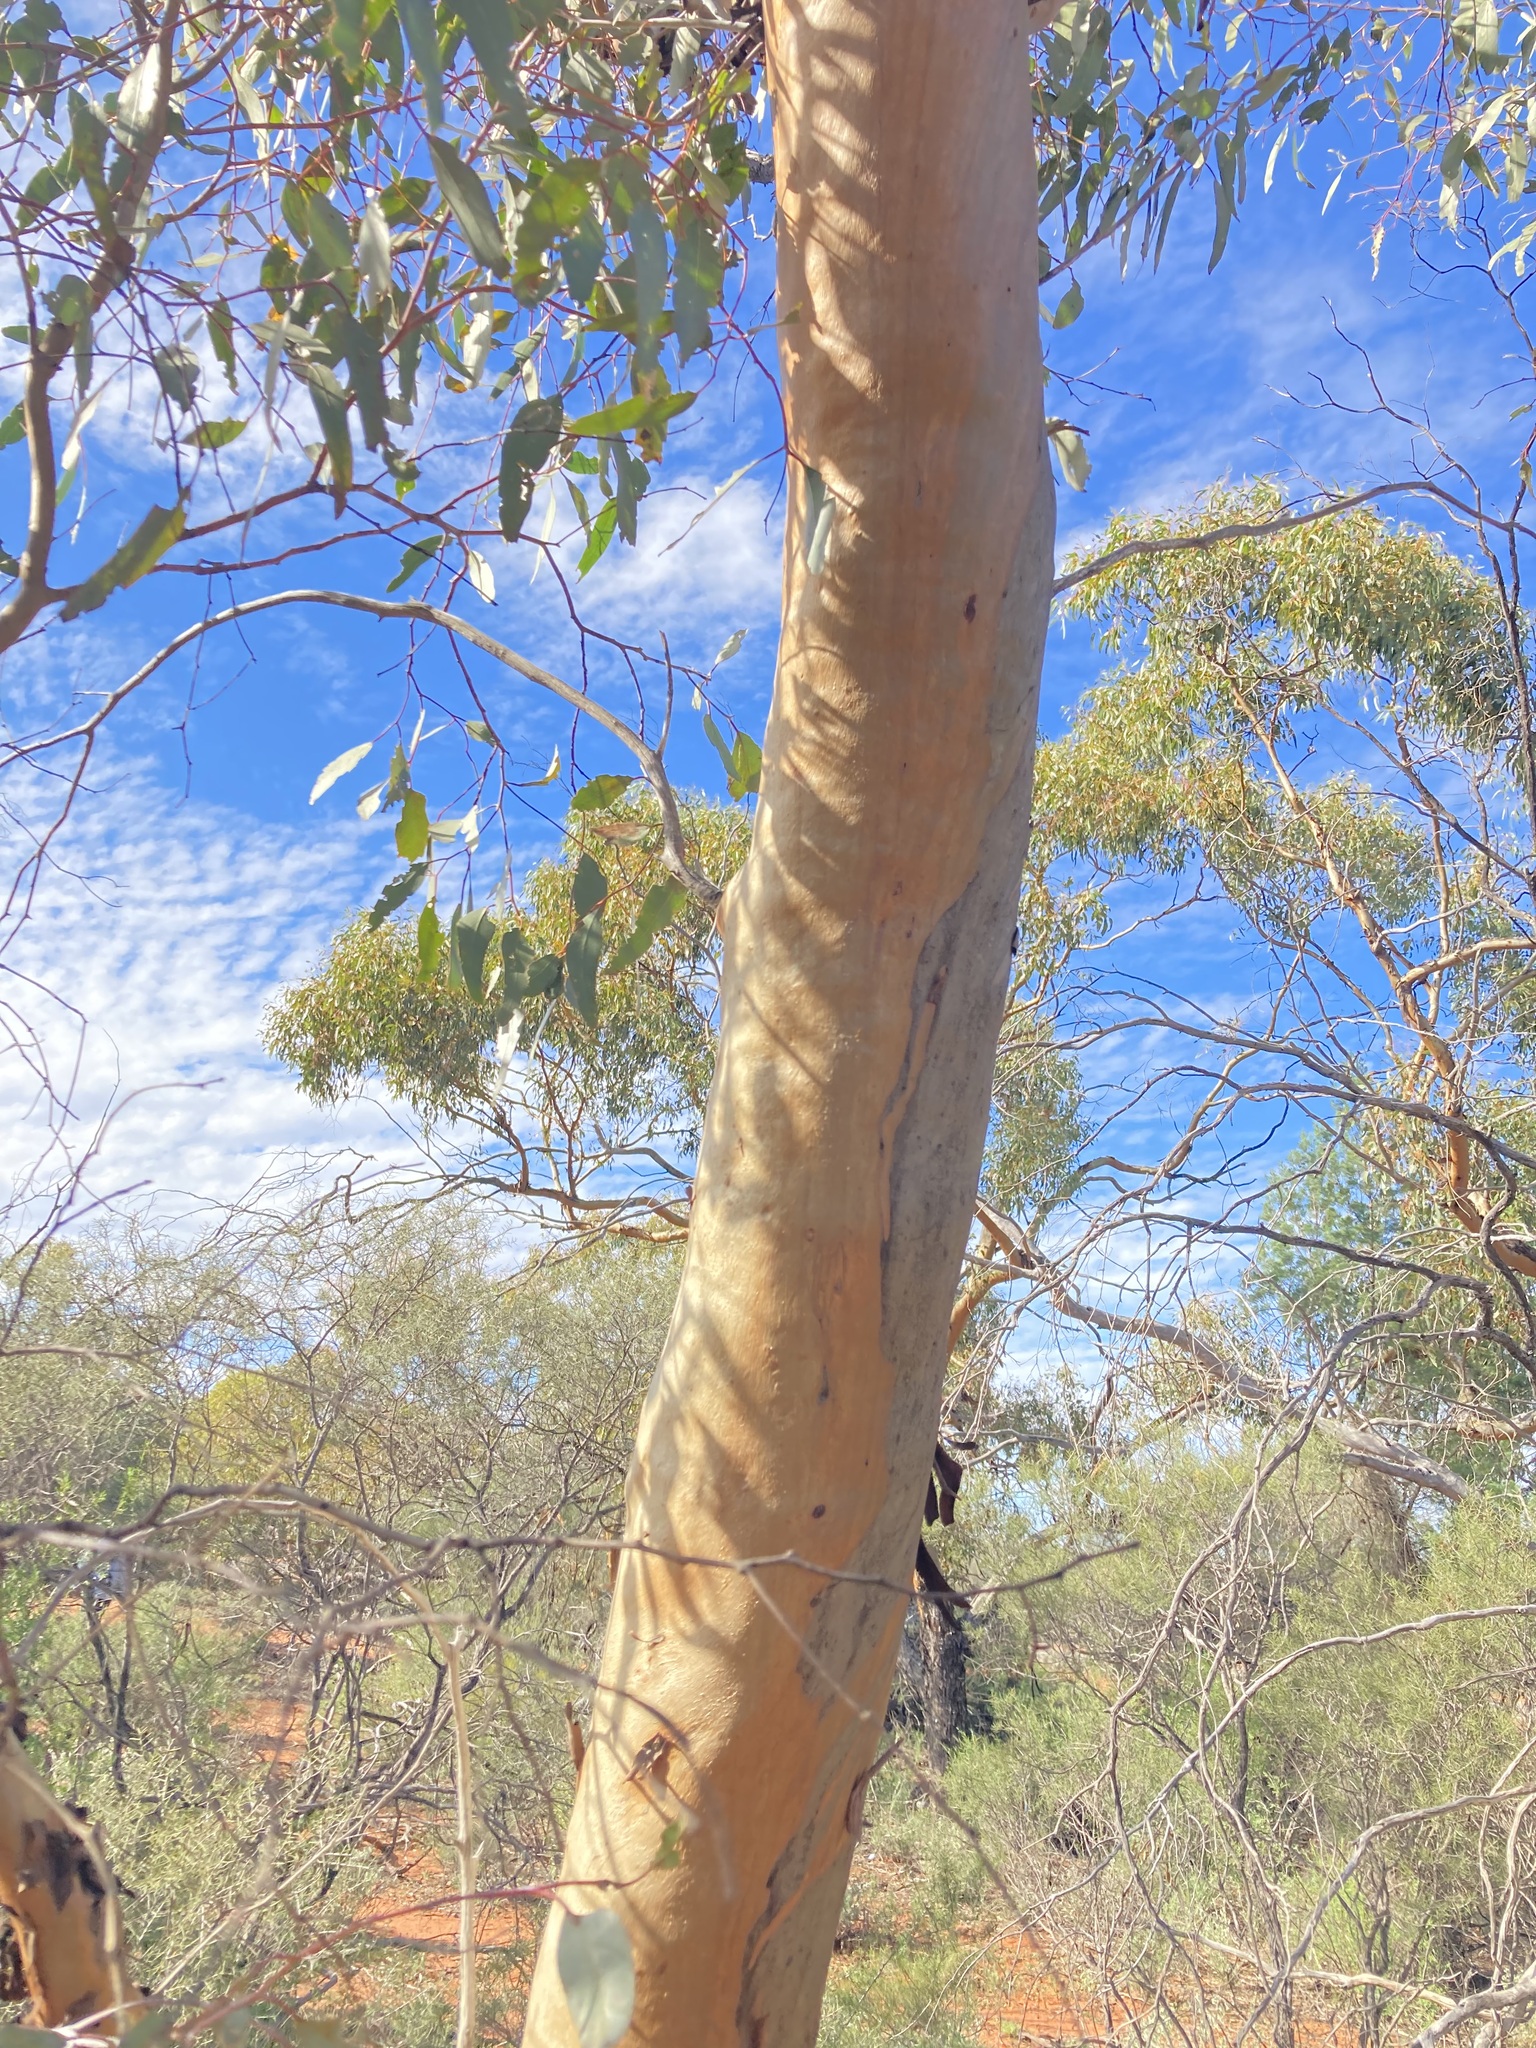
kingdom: Plantae
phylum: Tracheophyta
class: Magnoliopsida
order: Myrtales
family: Myrtaceae
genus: Eucalyptus
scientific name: Eucalyptus loxophleba
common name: York gum
